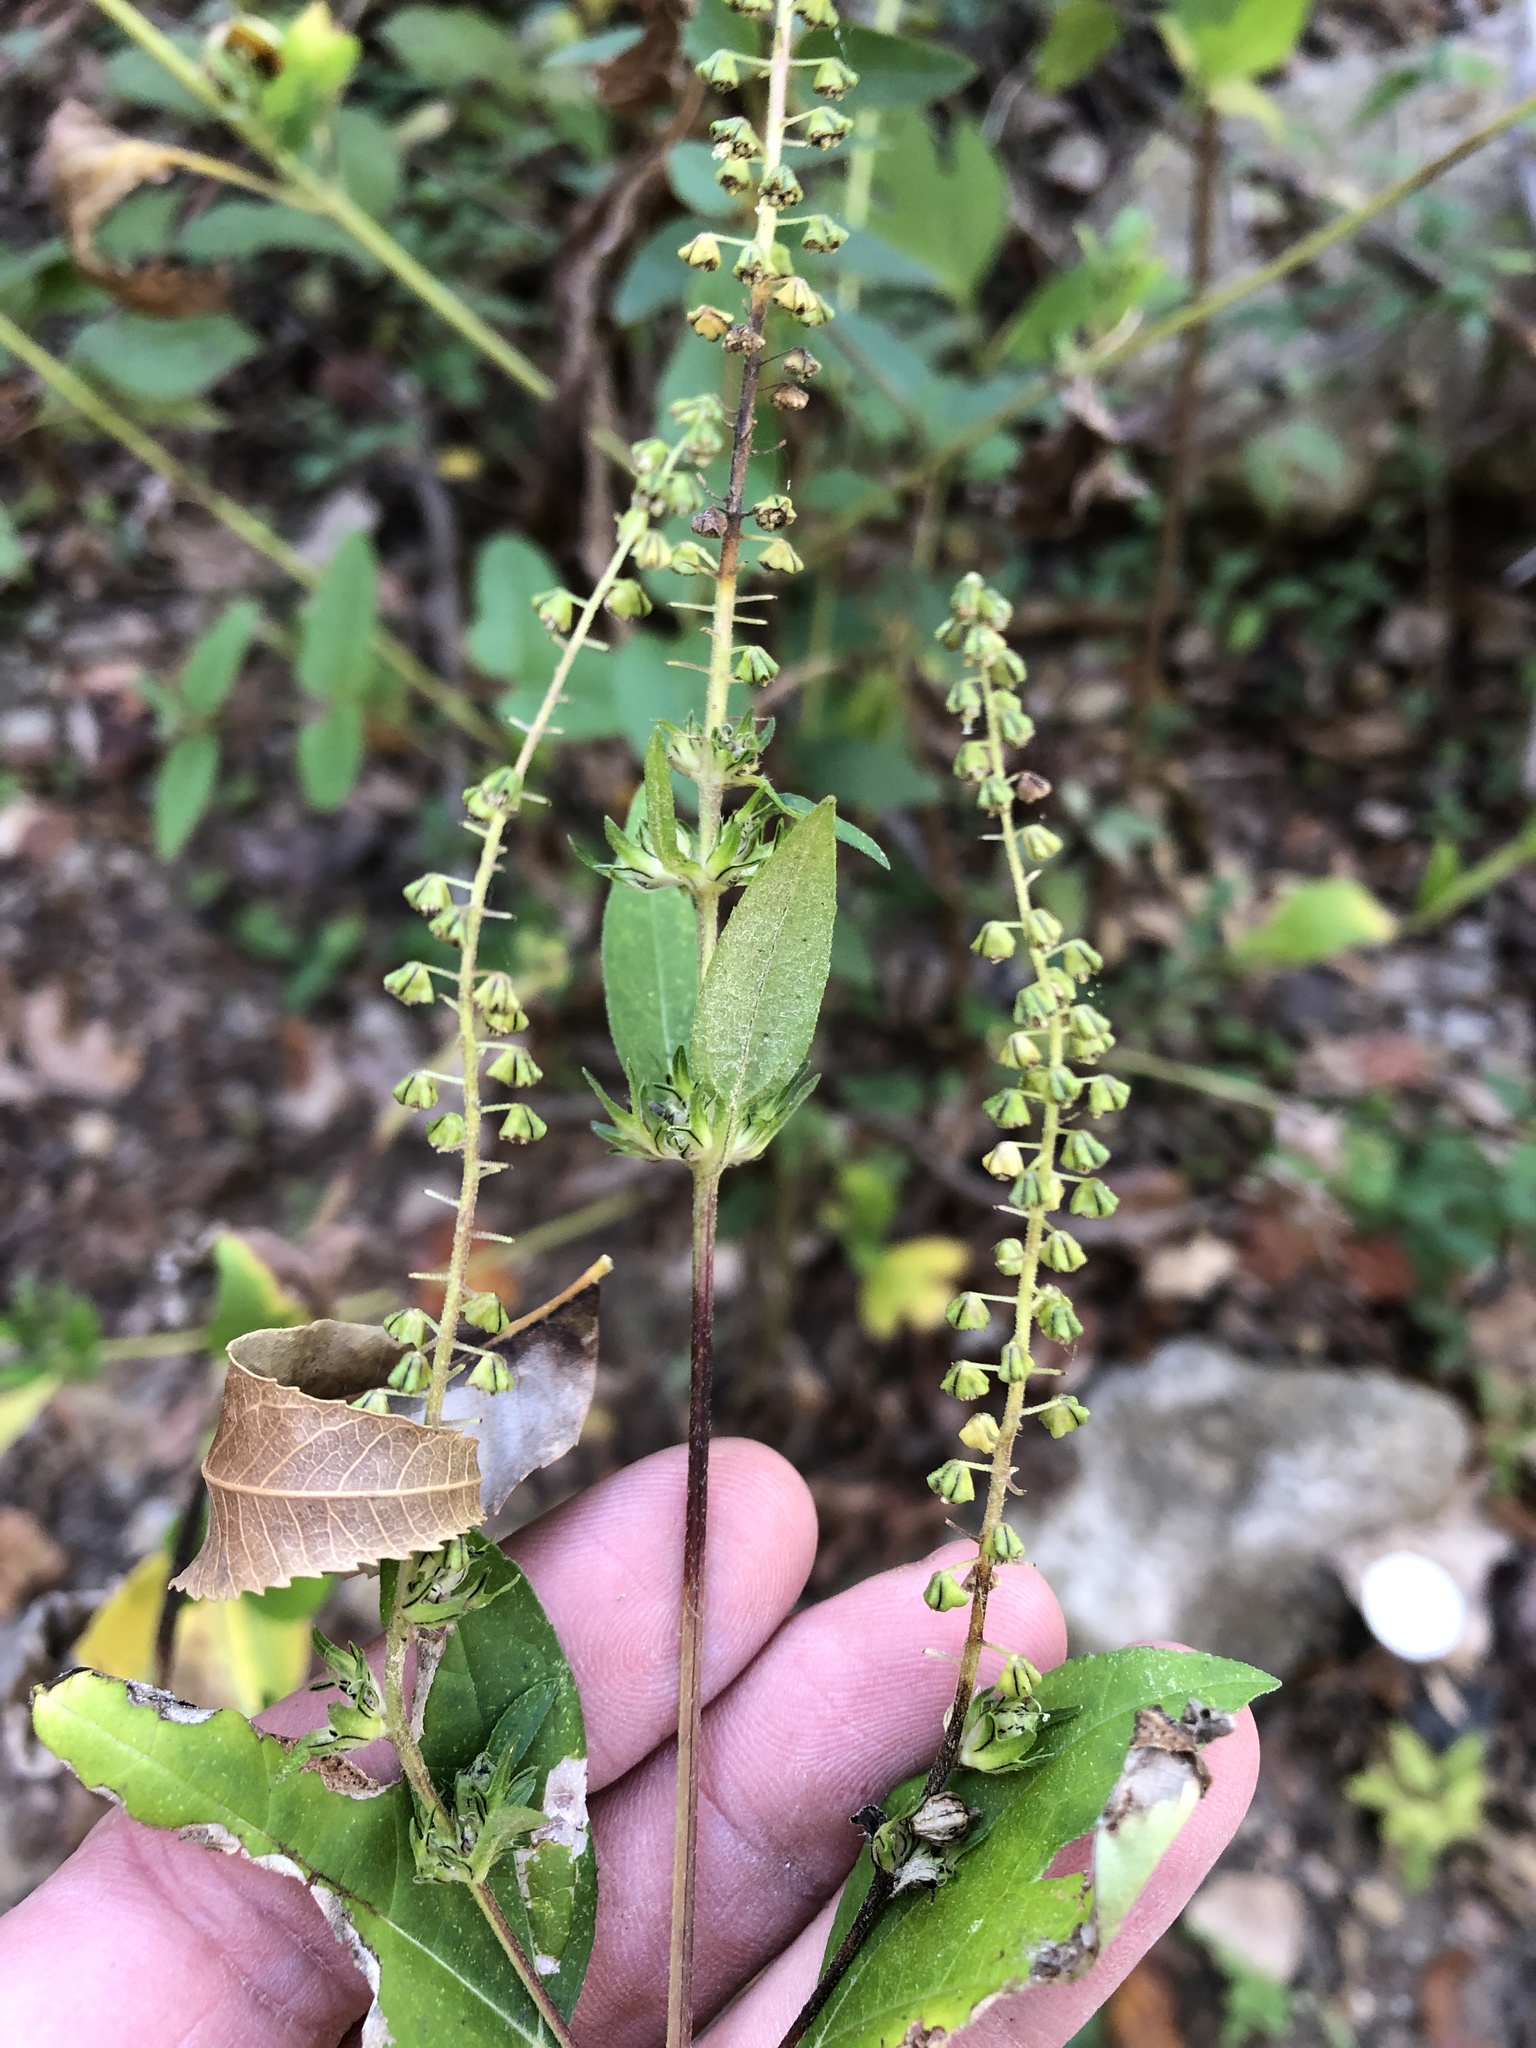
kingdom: Plantae
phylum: Tracheophyta
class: Magnoliopsida
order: Asterales
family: Asteraceae
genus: Ambrosia
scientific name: Ambrosia trifida
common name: Giant ragweed
